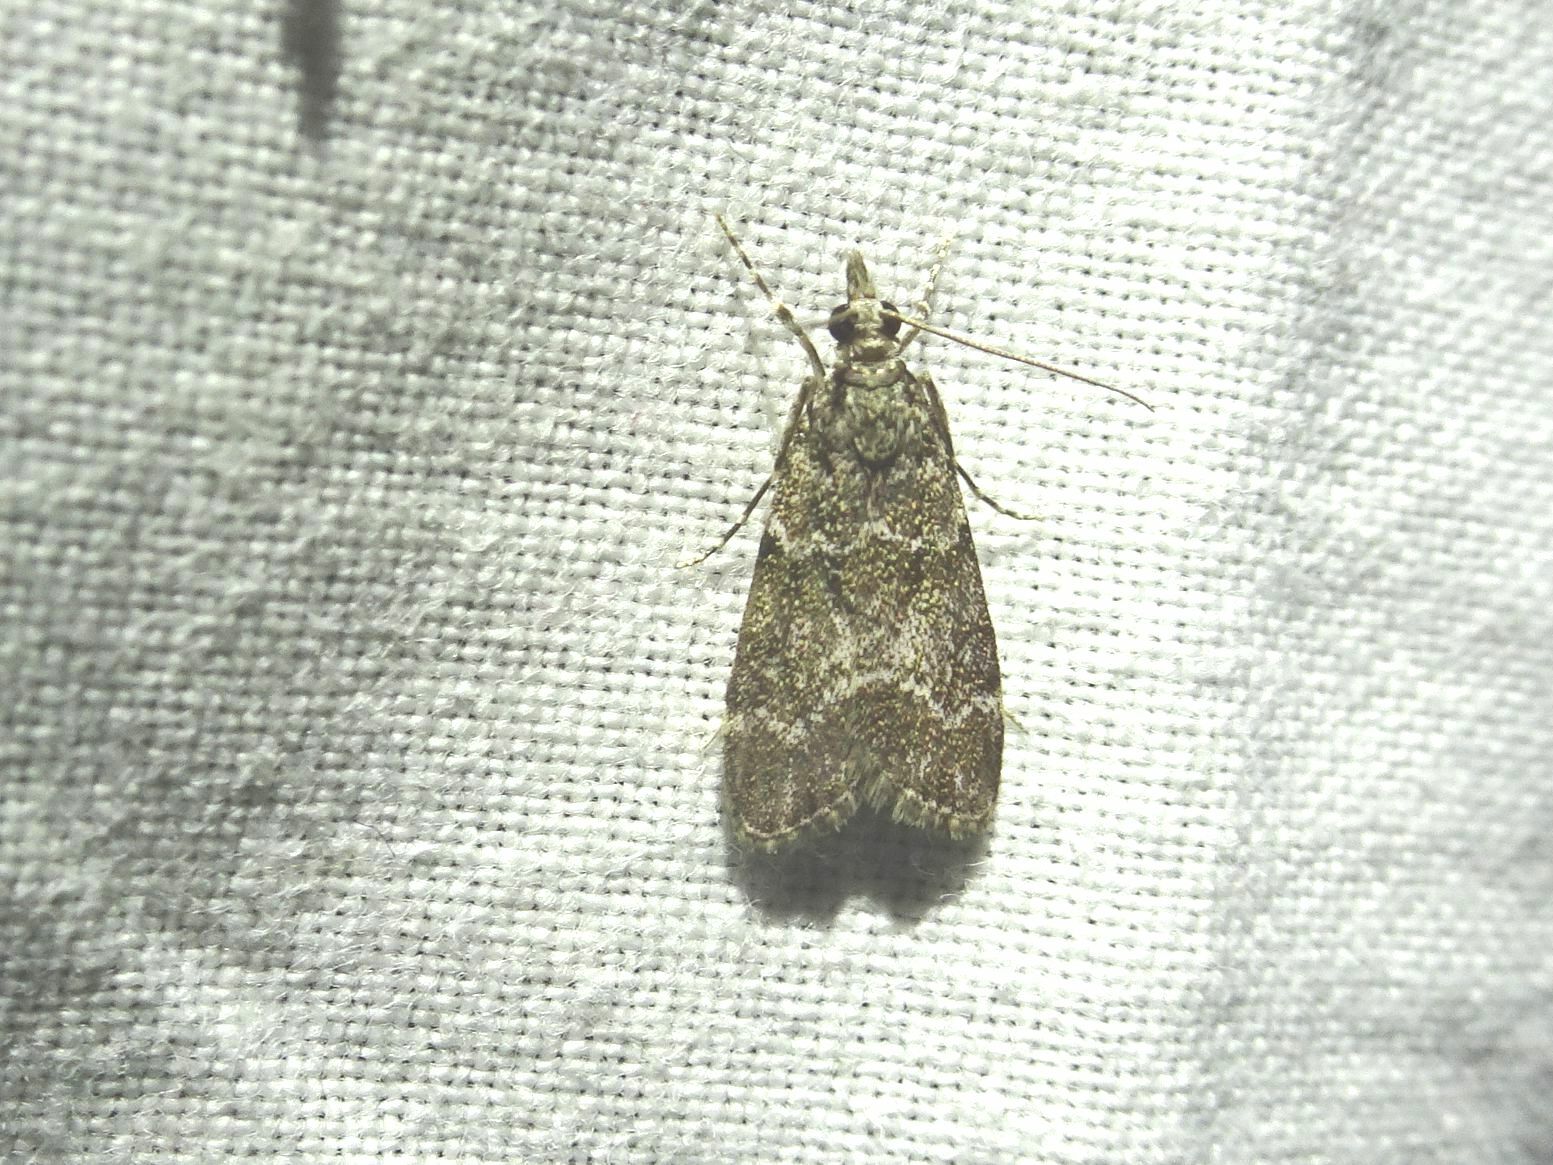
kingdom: Animalia
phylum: Arthropoda
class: Insecta
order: Lepidoptera
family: Crambidae
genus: Eudonia
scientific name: Eudonia mercurella
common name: Small grey
